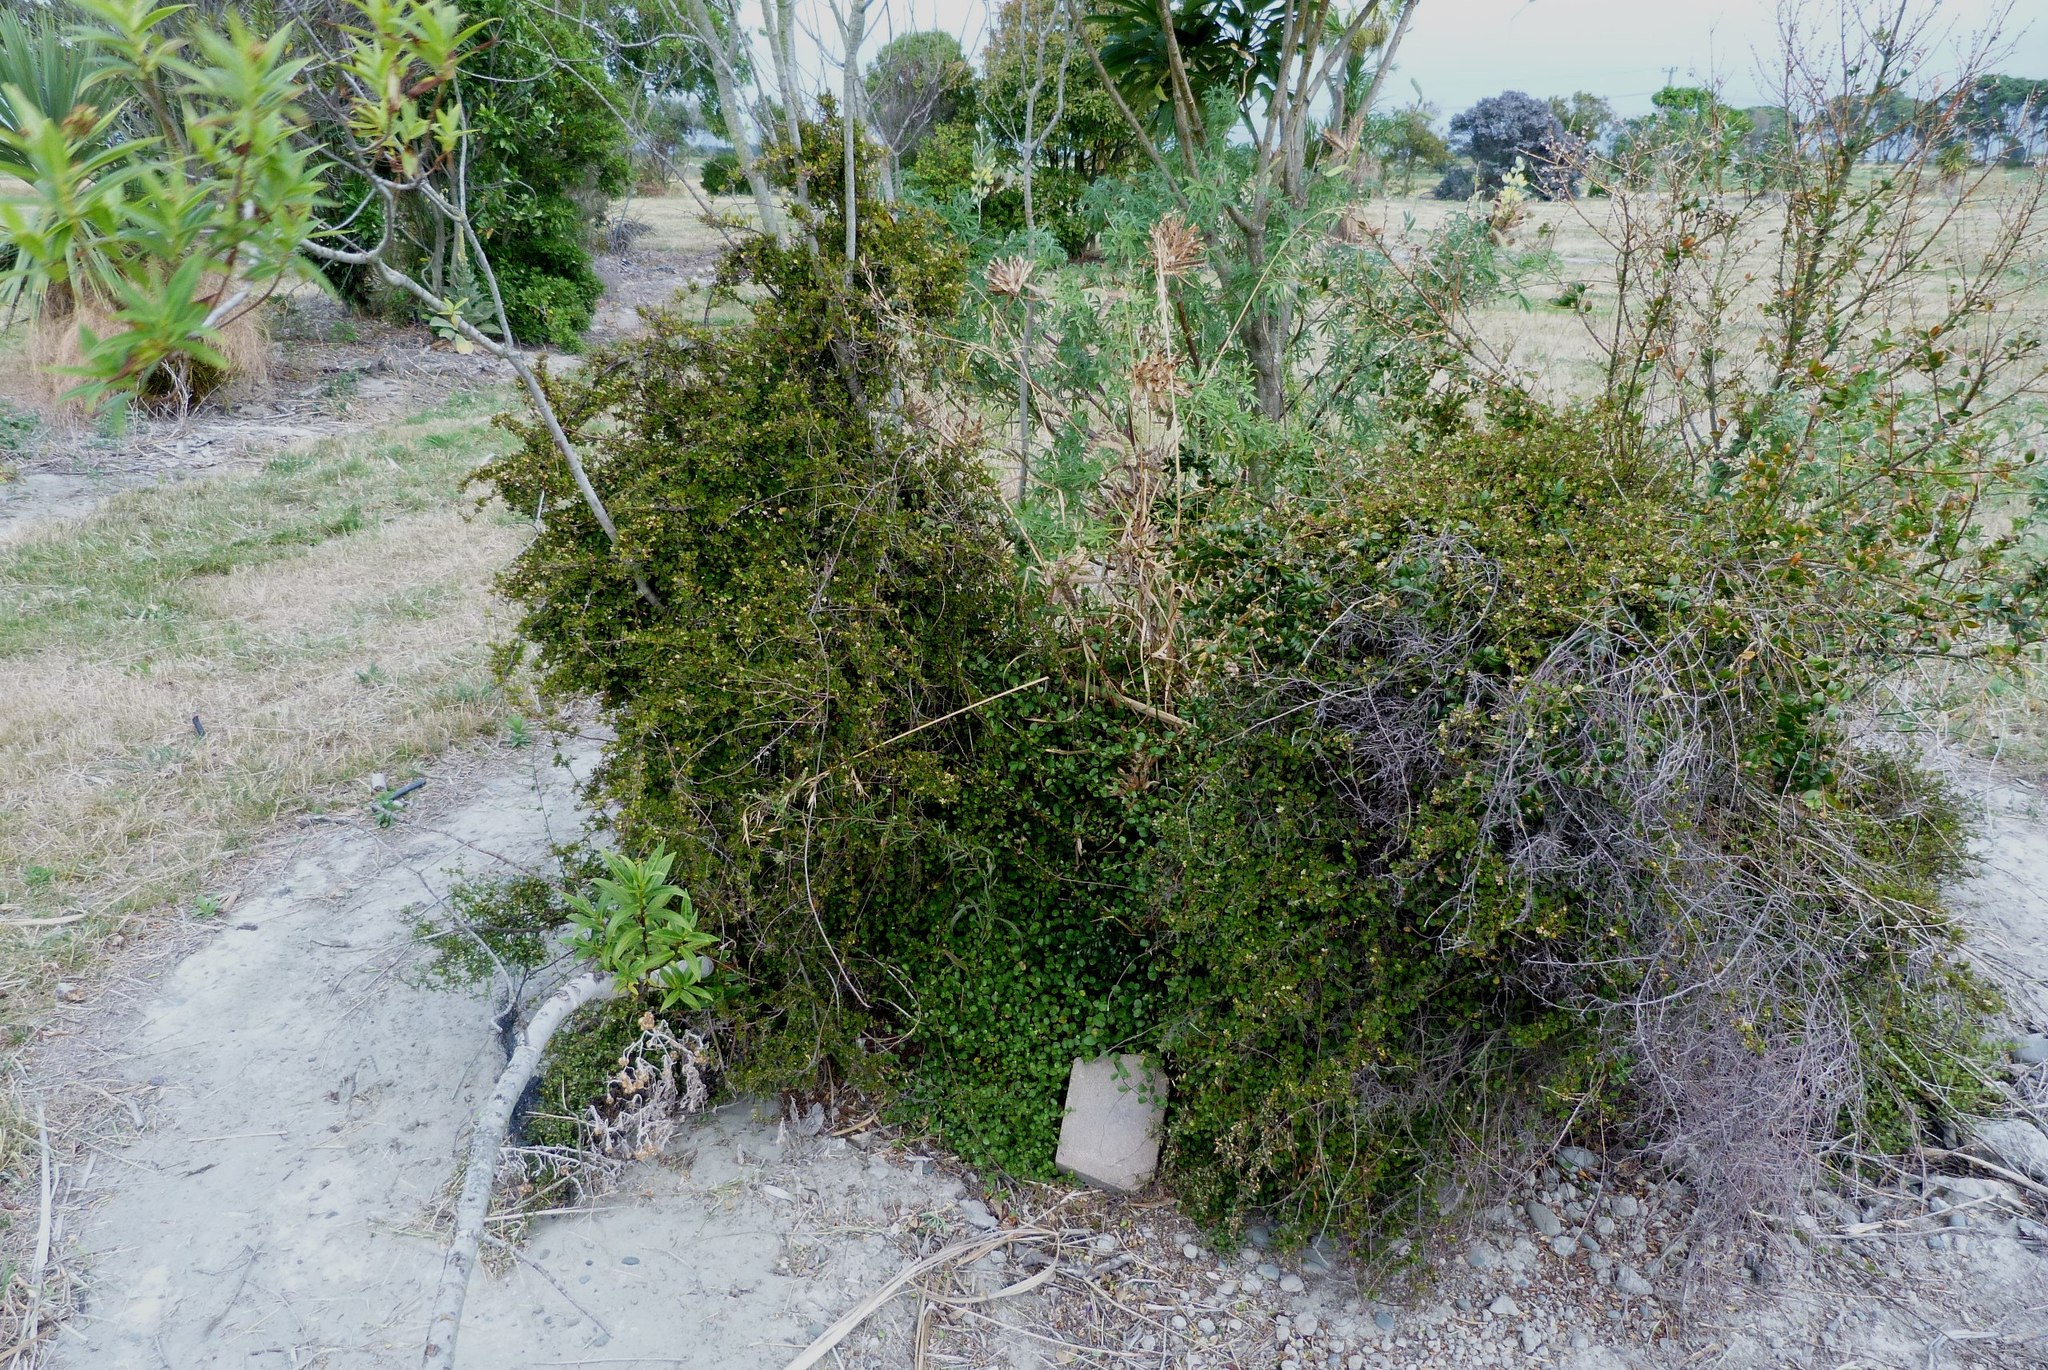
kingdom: Plantae
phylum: Tracheophyta
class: Magnoliopsida
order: Caryophyllales
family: Polygonaceae
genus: Muehlenbeckia
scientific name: Muehlenbeckia complexa
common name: Wireplant
